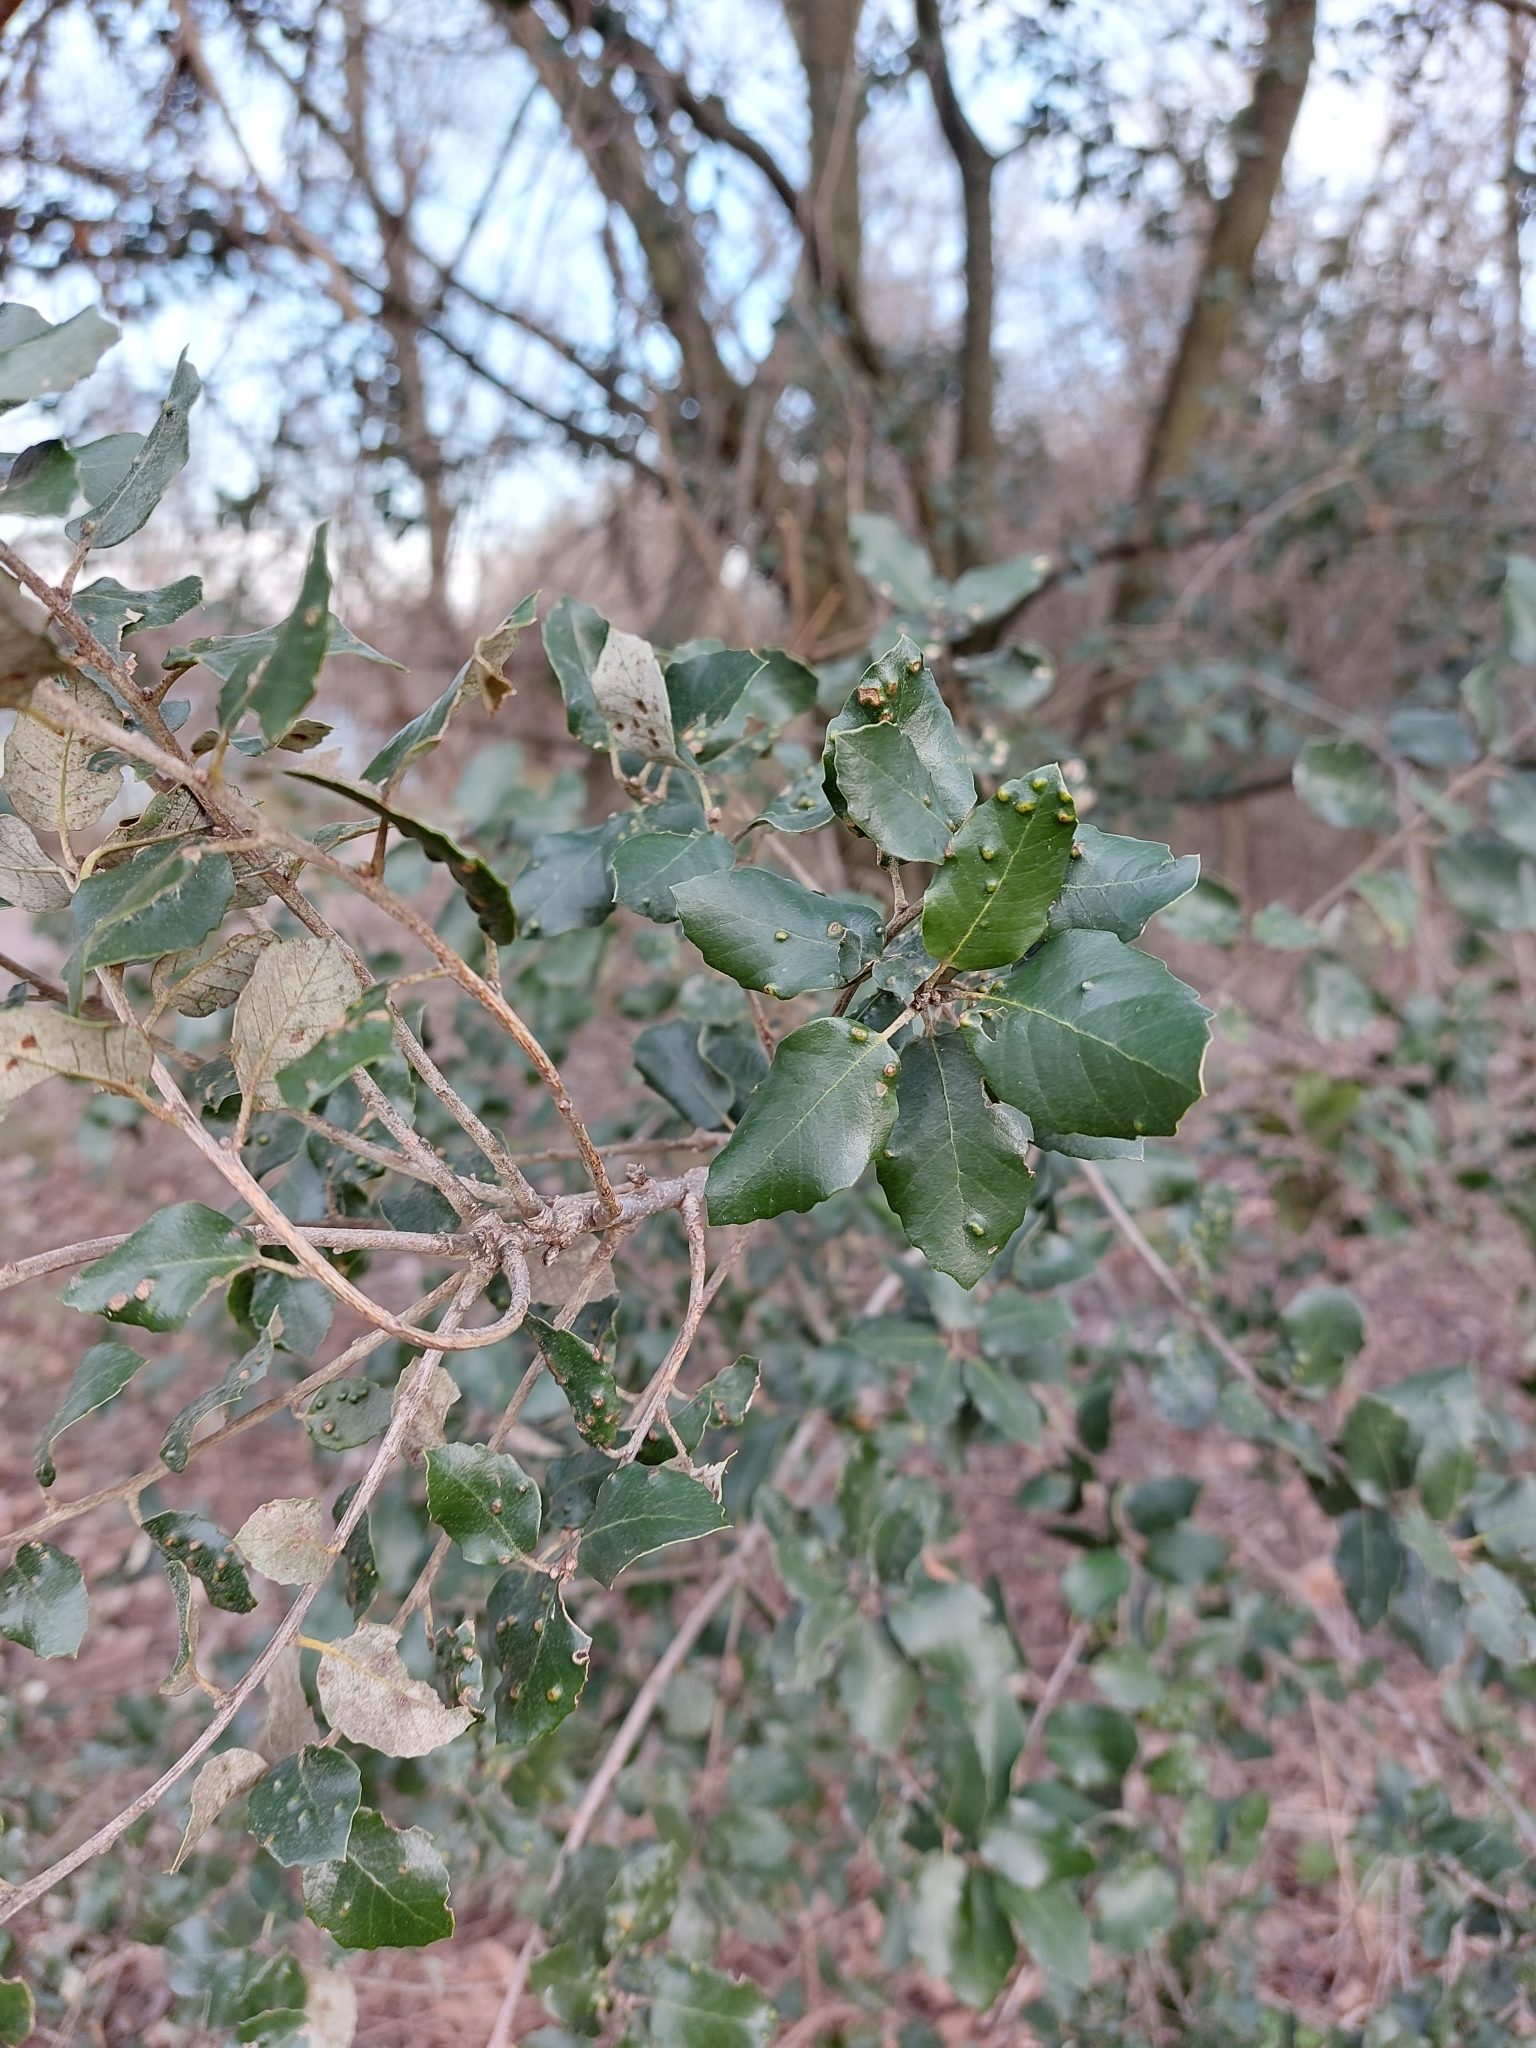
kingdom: Plantae
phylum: Tracheophyta
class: Magnoliopsida
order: Fagales
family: Fagaceae
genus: Quercus
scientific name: Quercus ilex
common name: Evergreen oak
